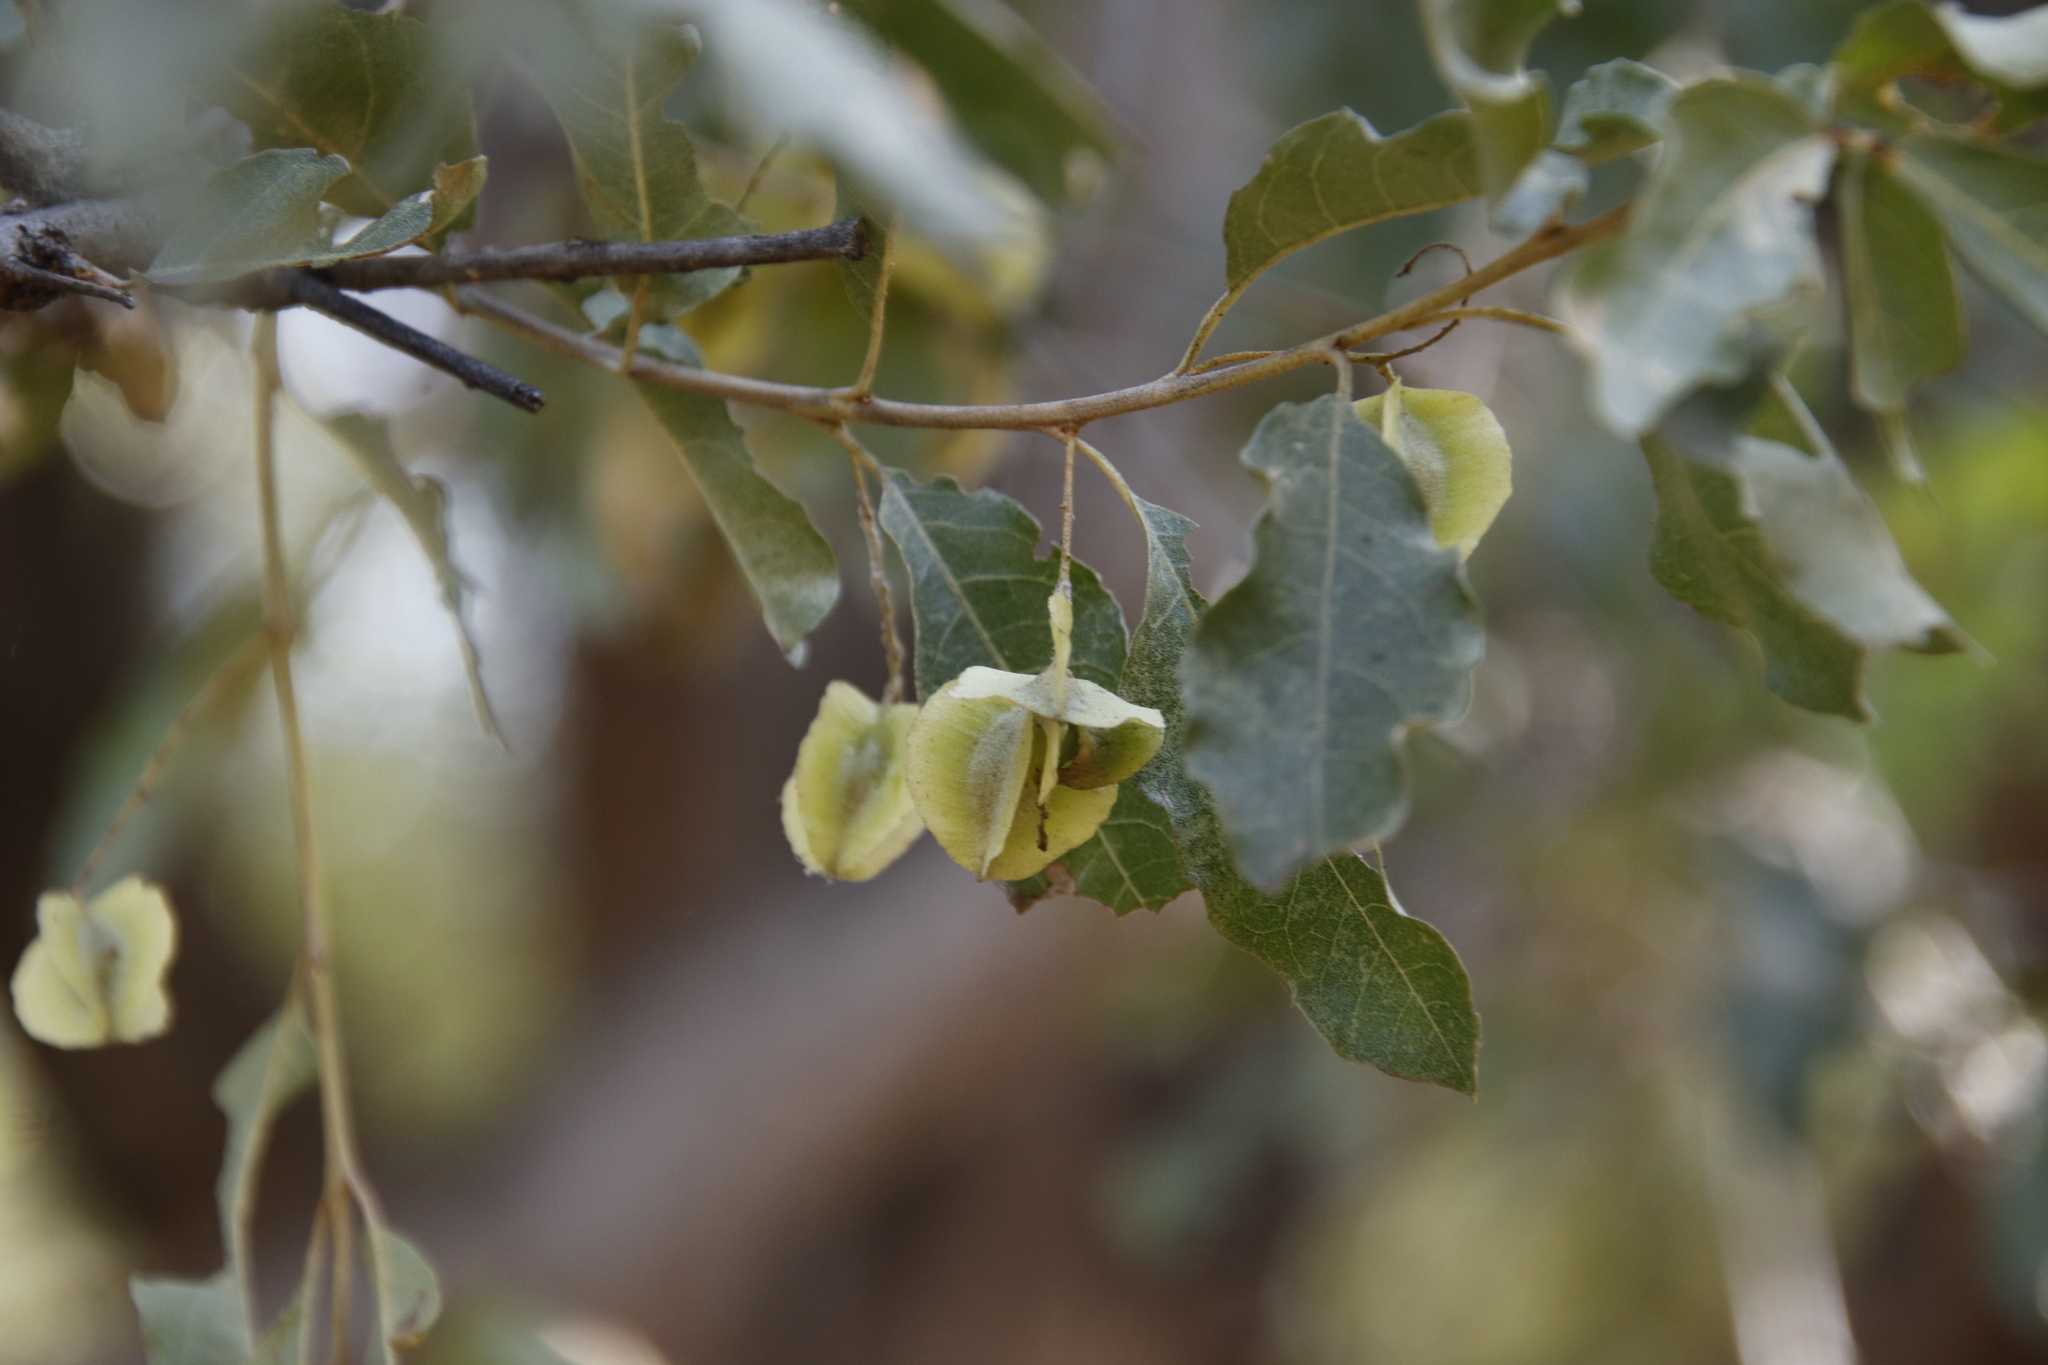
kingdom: Plantae
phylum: Tracheophyta
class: Magnoliopsida
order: Myrtales
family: Combretaceae
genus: Combretum
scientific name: Combretum imberbe
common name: Leadwood
